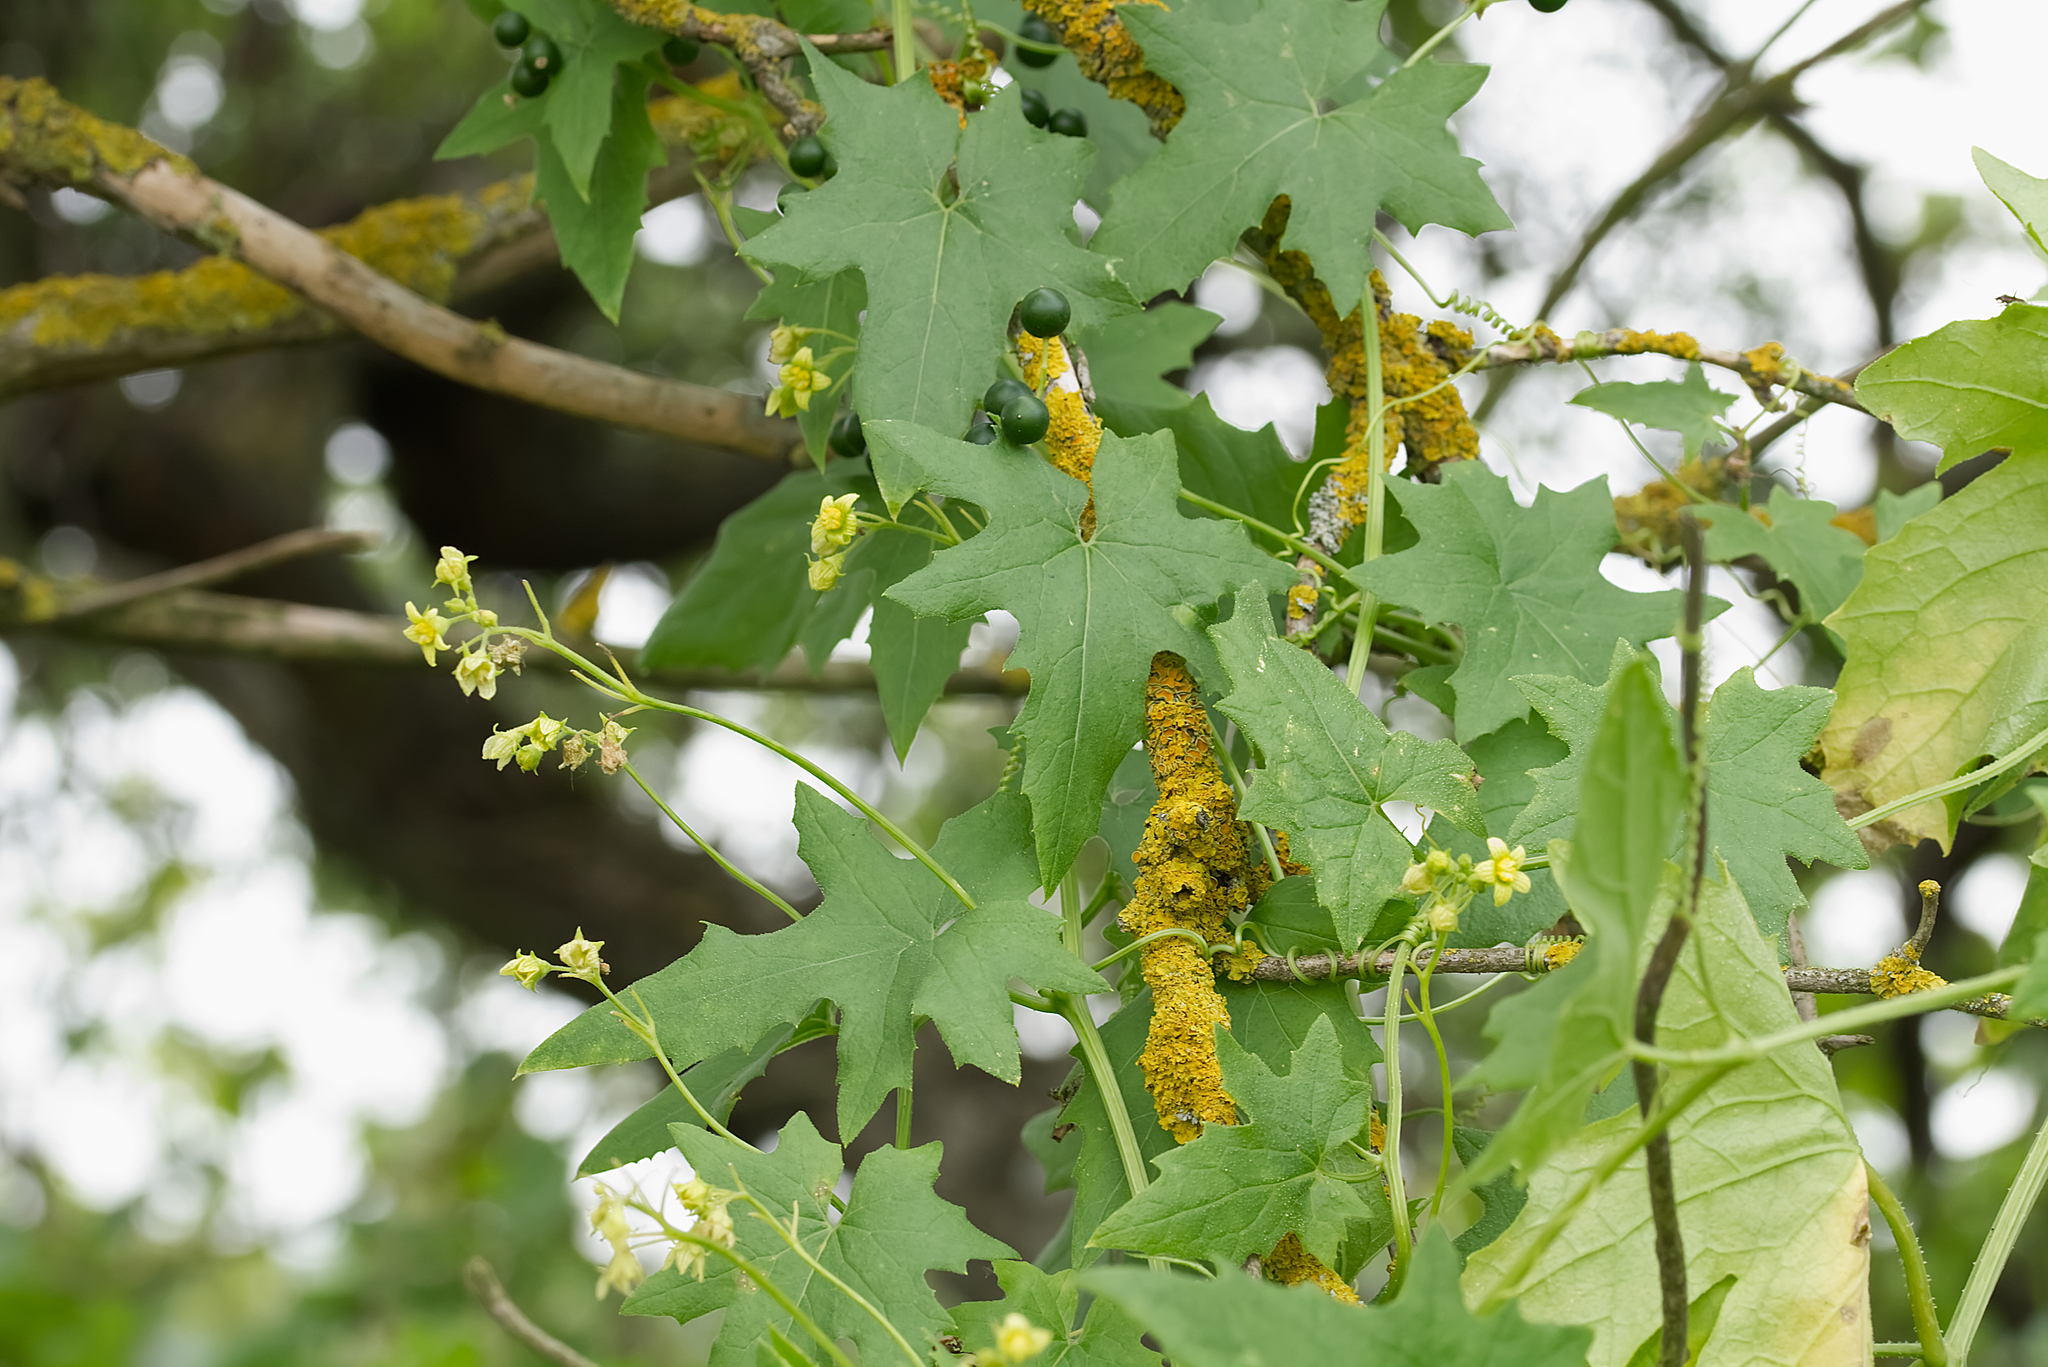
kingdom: Plantae
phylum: Tracheophyta
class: Magnoliopsida
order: Cucurbitales
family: Cucurbitaceae
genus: Bryonia
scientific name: Bryonia alba
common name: White bryony
